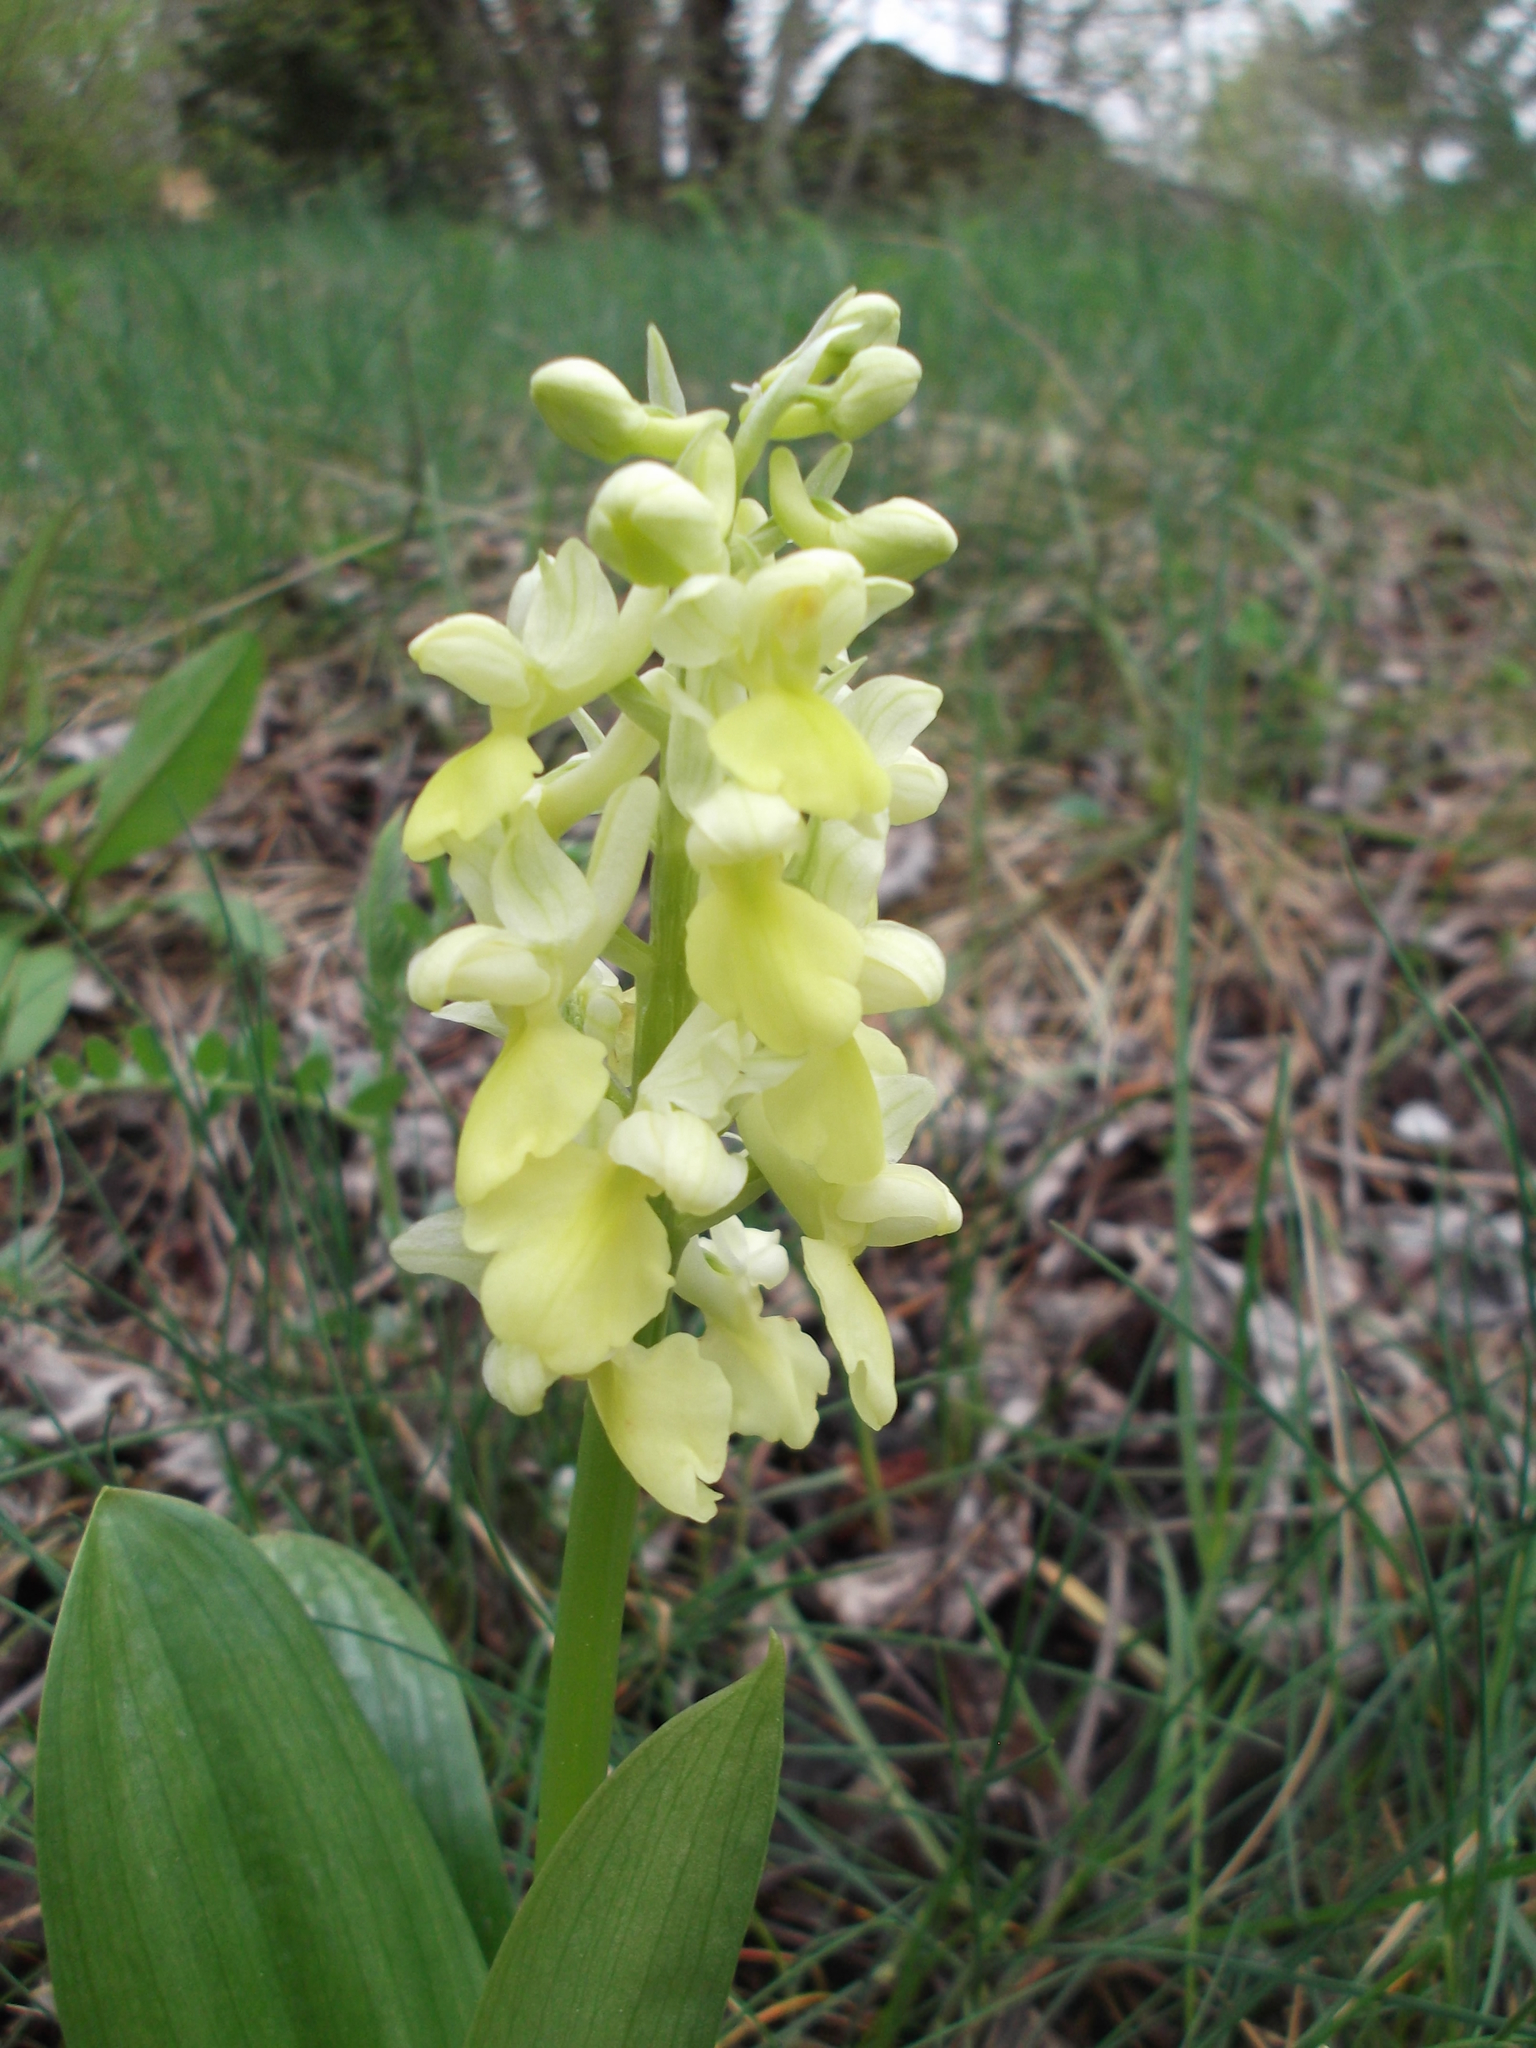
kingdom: Plantae
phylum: Tracheophyta
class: Liliopsida
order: Asparagales
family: Orchidaceae
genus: Orchis
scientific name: Orchis pallens
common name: Pale-flowered orchid
